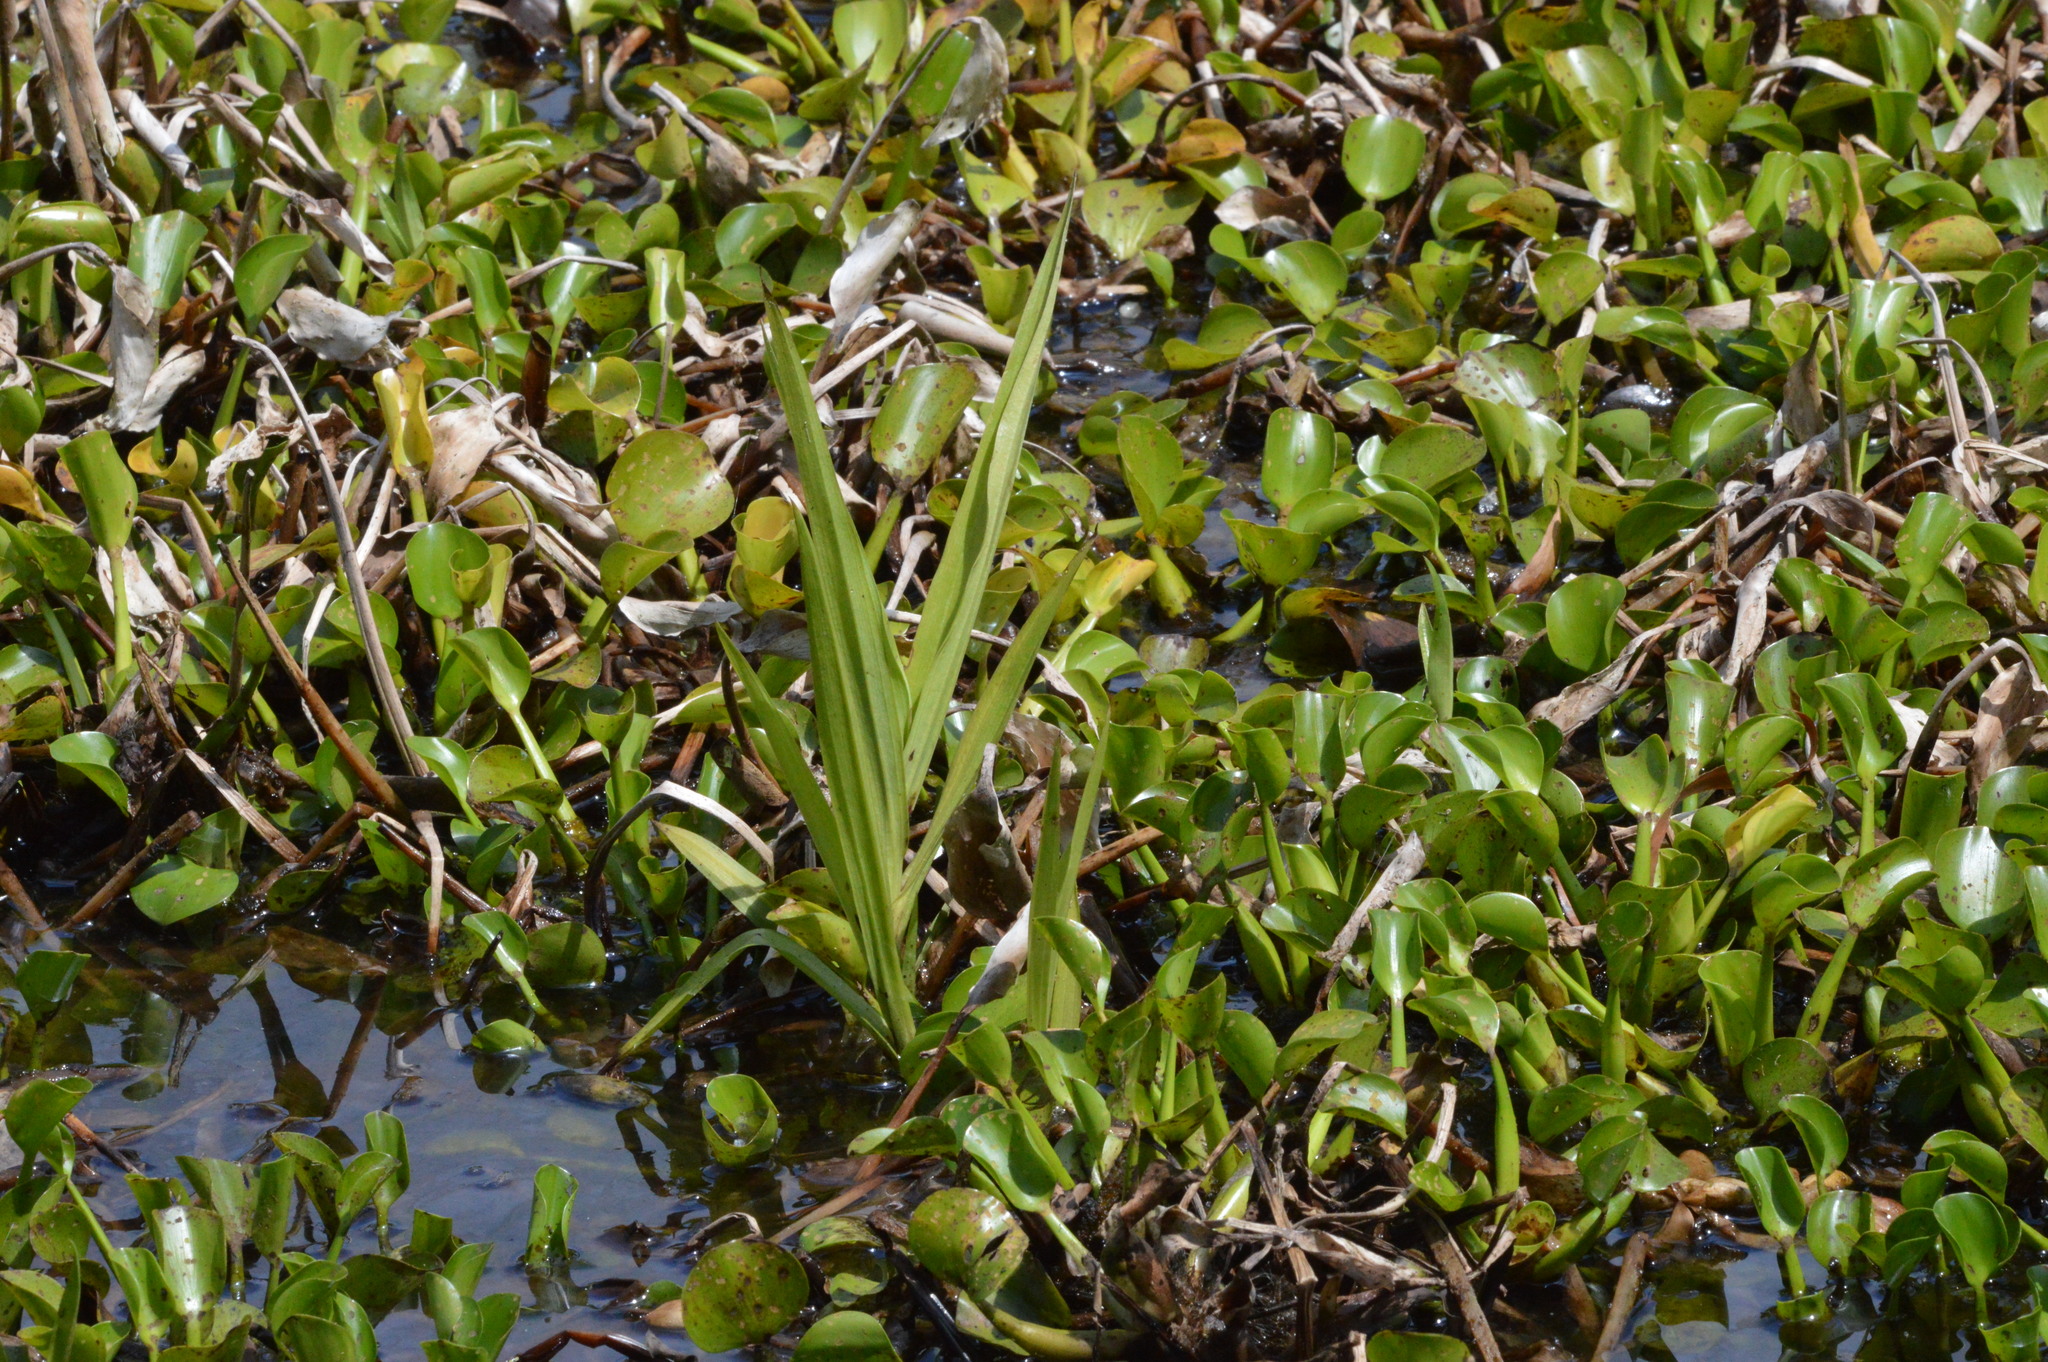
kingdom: Plantae
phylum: Tracheophyta
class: Liliopsida
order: Asparagales
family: Orchidaceae
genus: Habenaria
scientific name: Habenaria repens
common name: Water orchid
